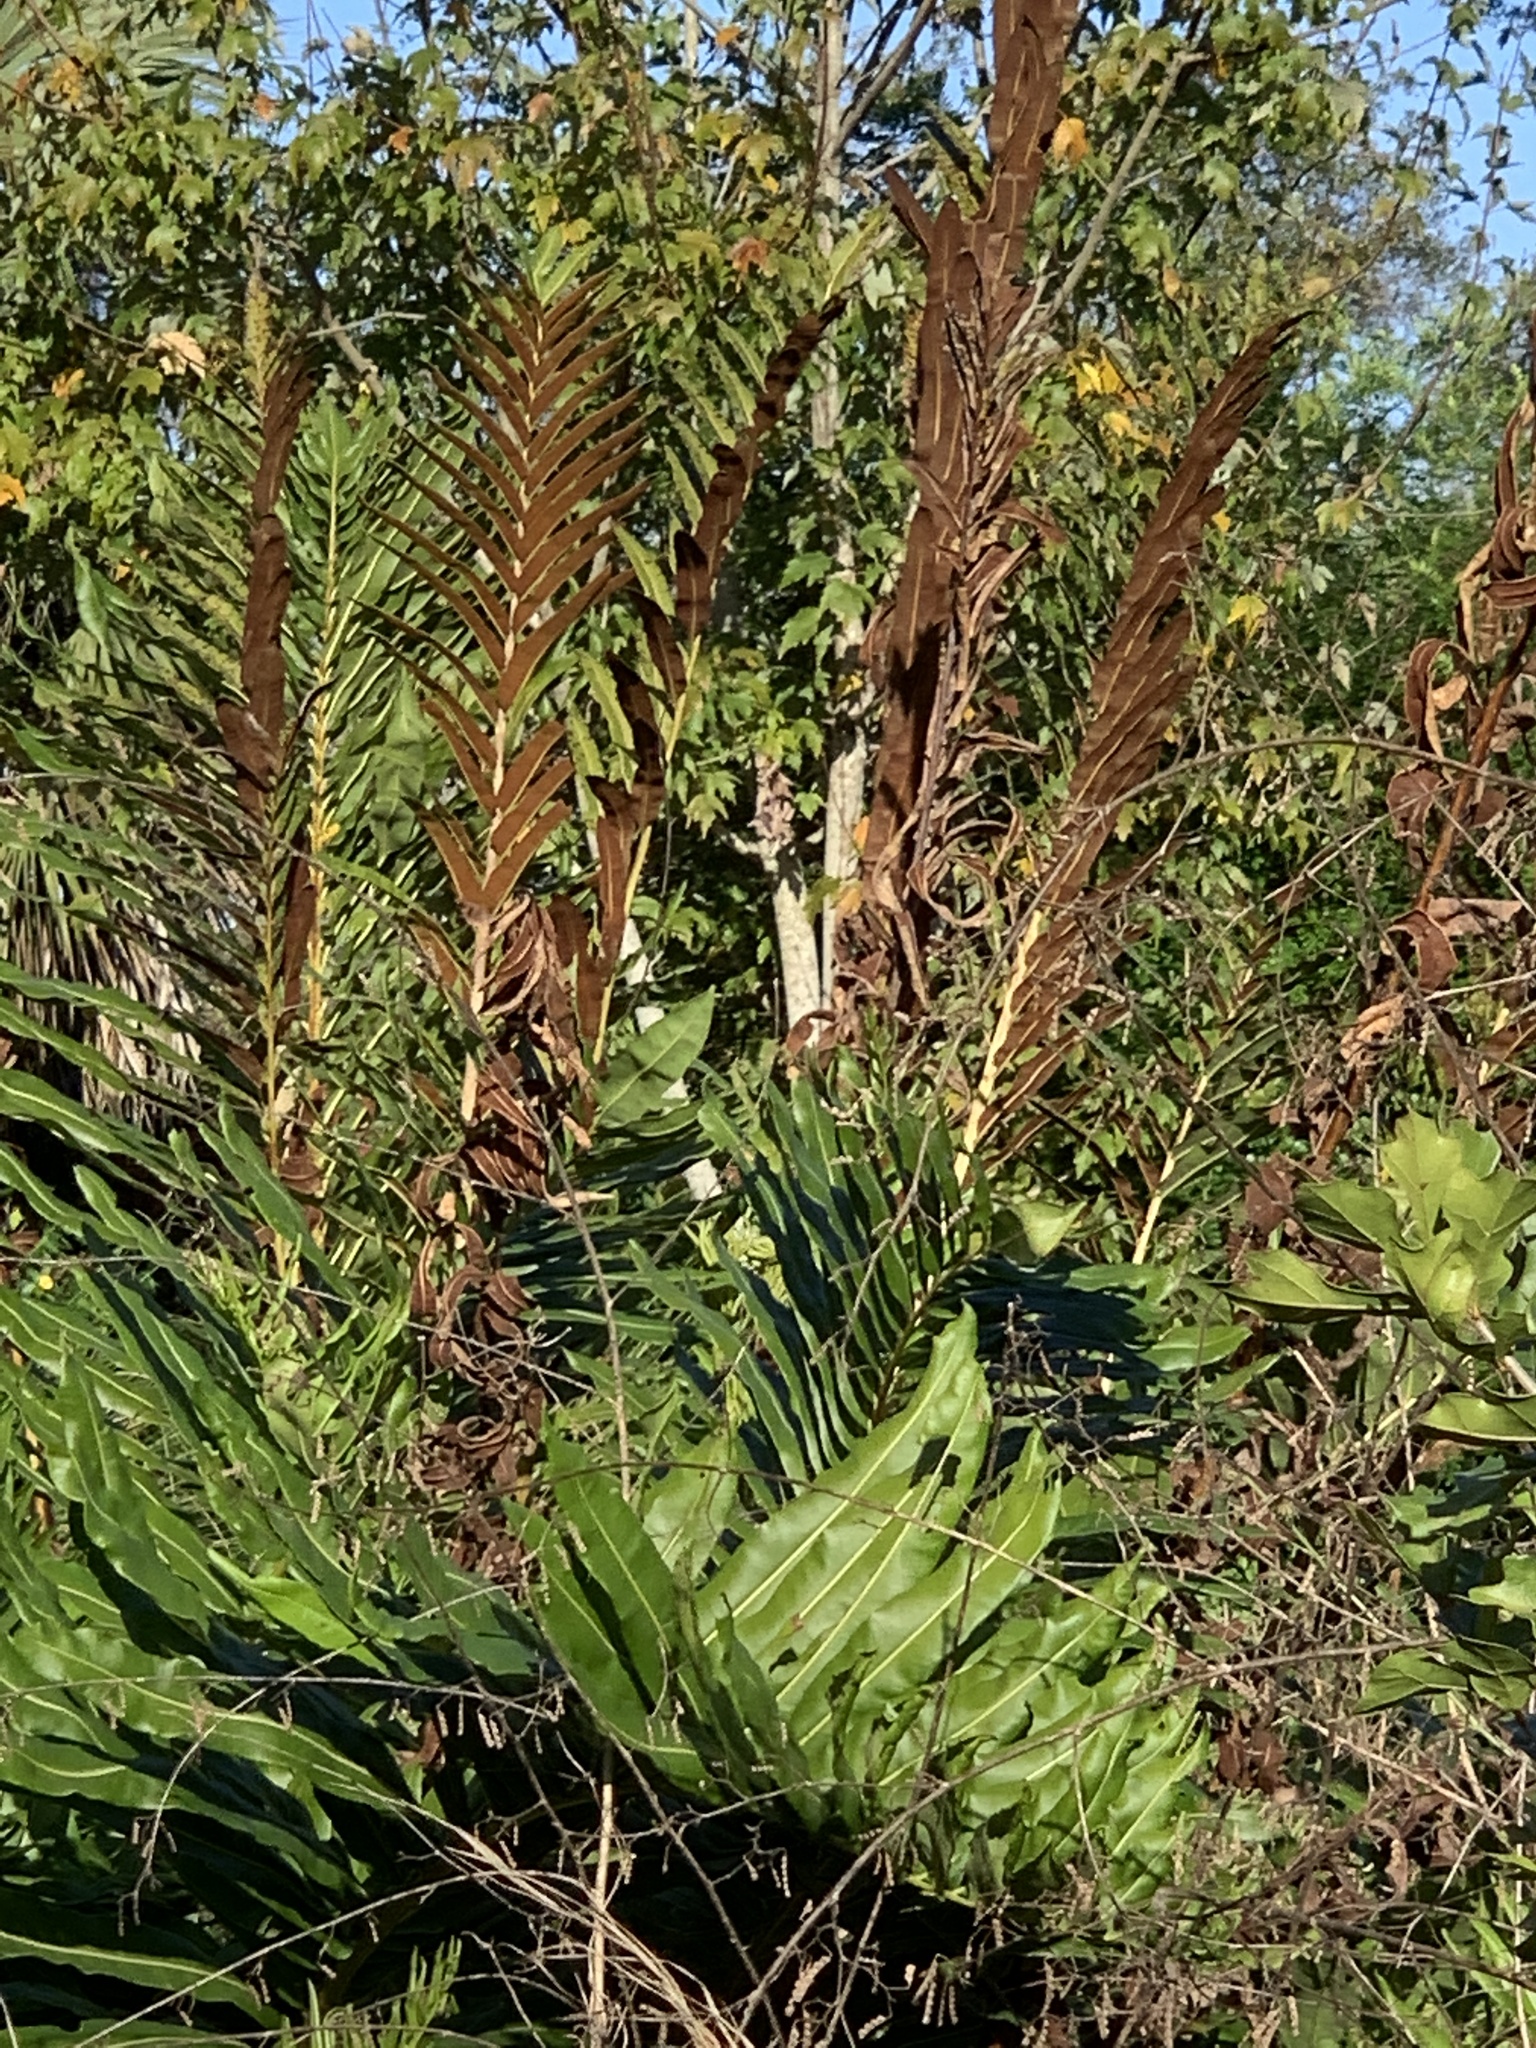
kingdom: Plantae
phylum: Tracheophyta
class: Polypodiopsida
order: Polypodiales
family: Pteridaceae
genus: Acrostichum
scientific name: Acrostichum danaeifolium
